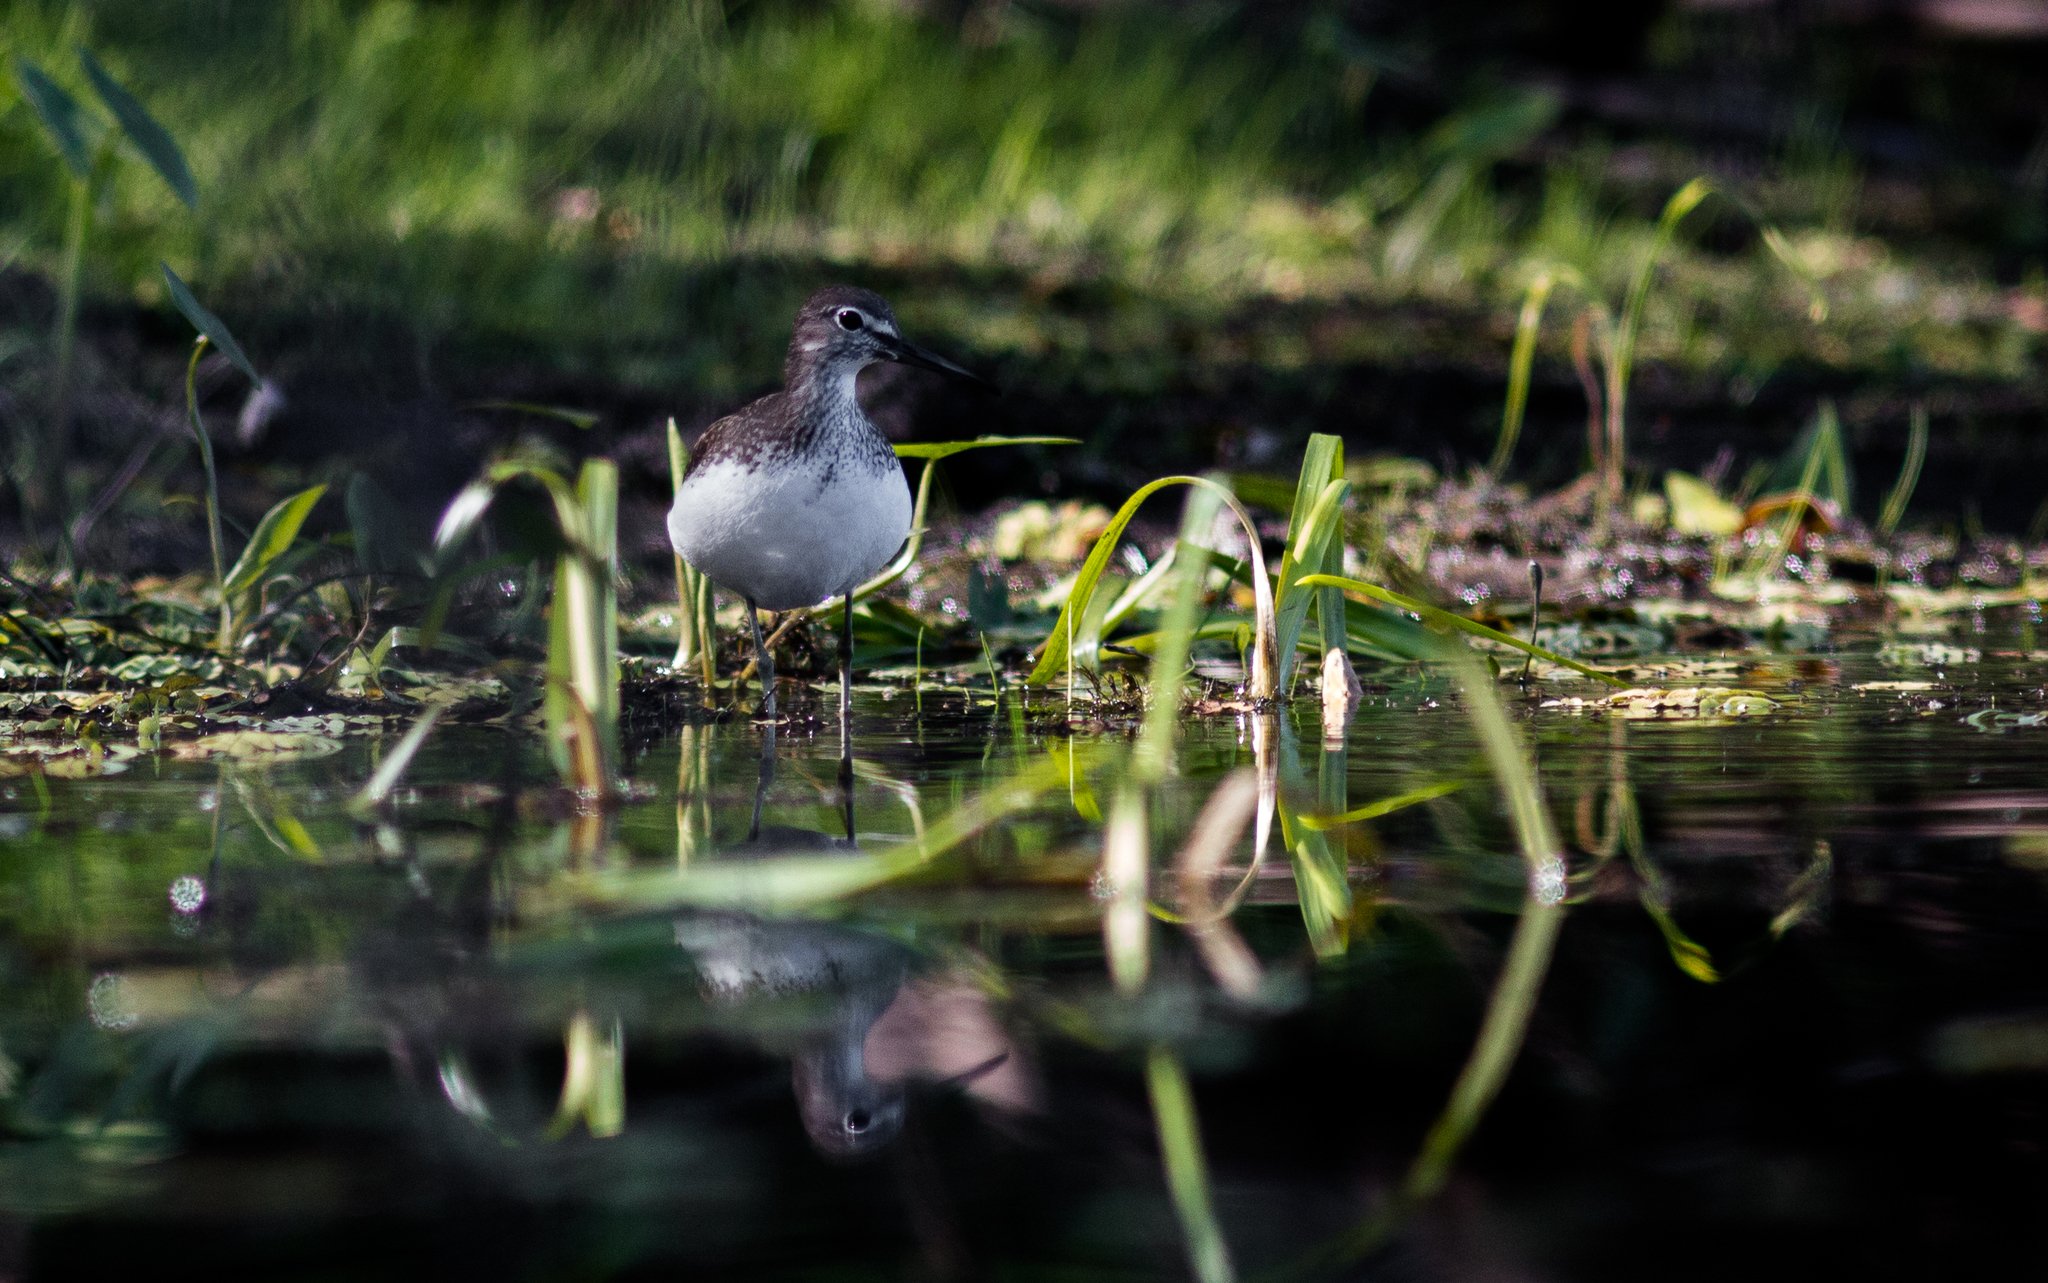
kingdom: Animalia
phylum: Chordata
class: Aves
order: Charadriiformes
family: Scolopacidae
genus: Tringa
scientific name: Tringa ochropus
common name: Green sandpiper
